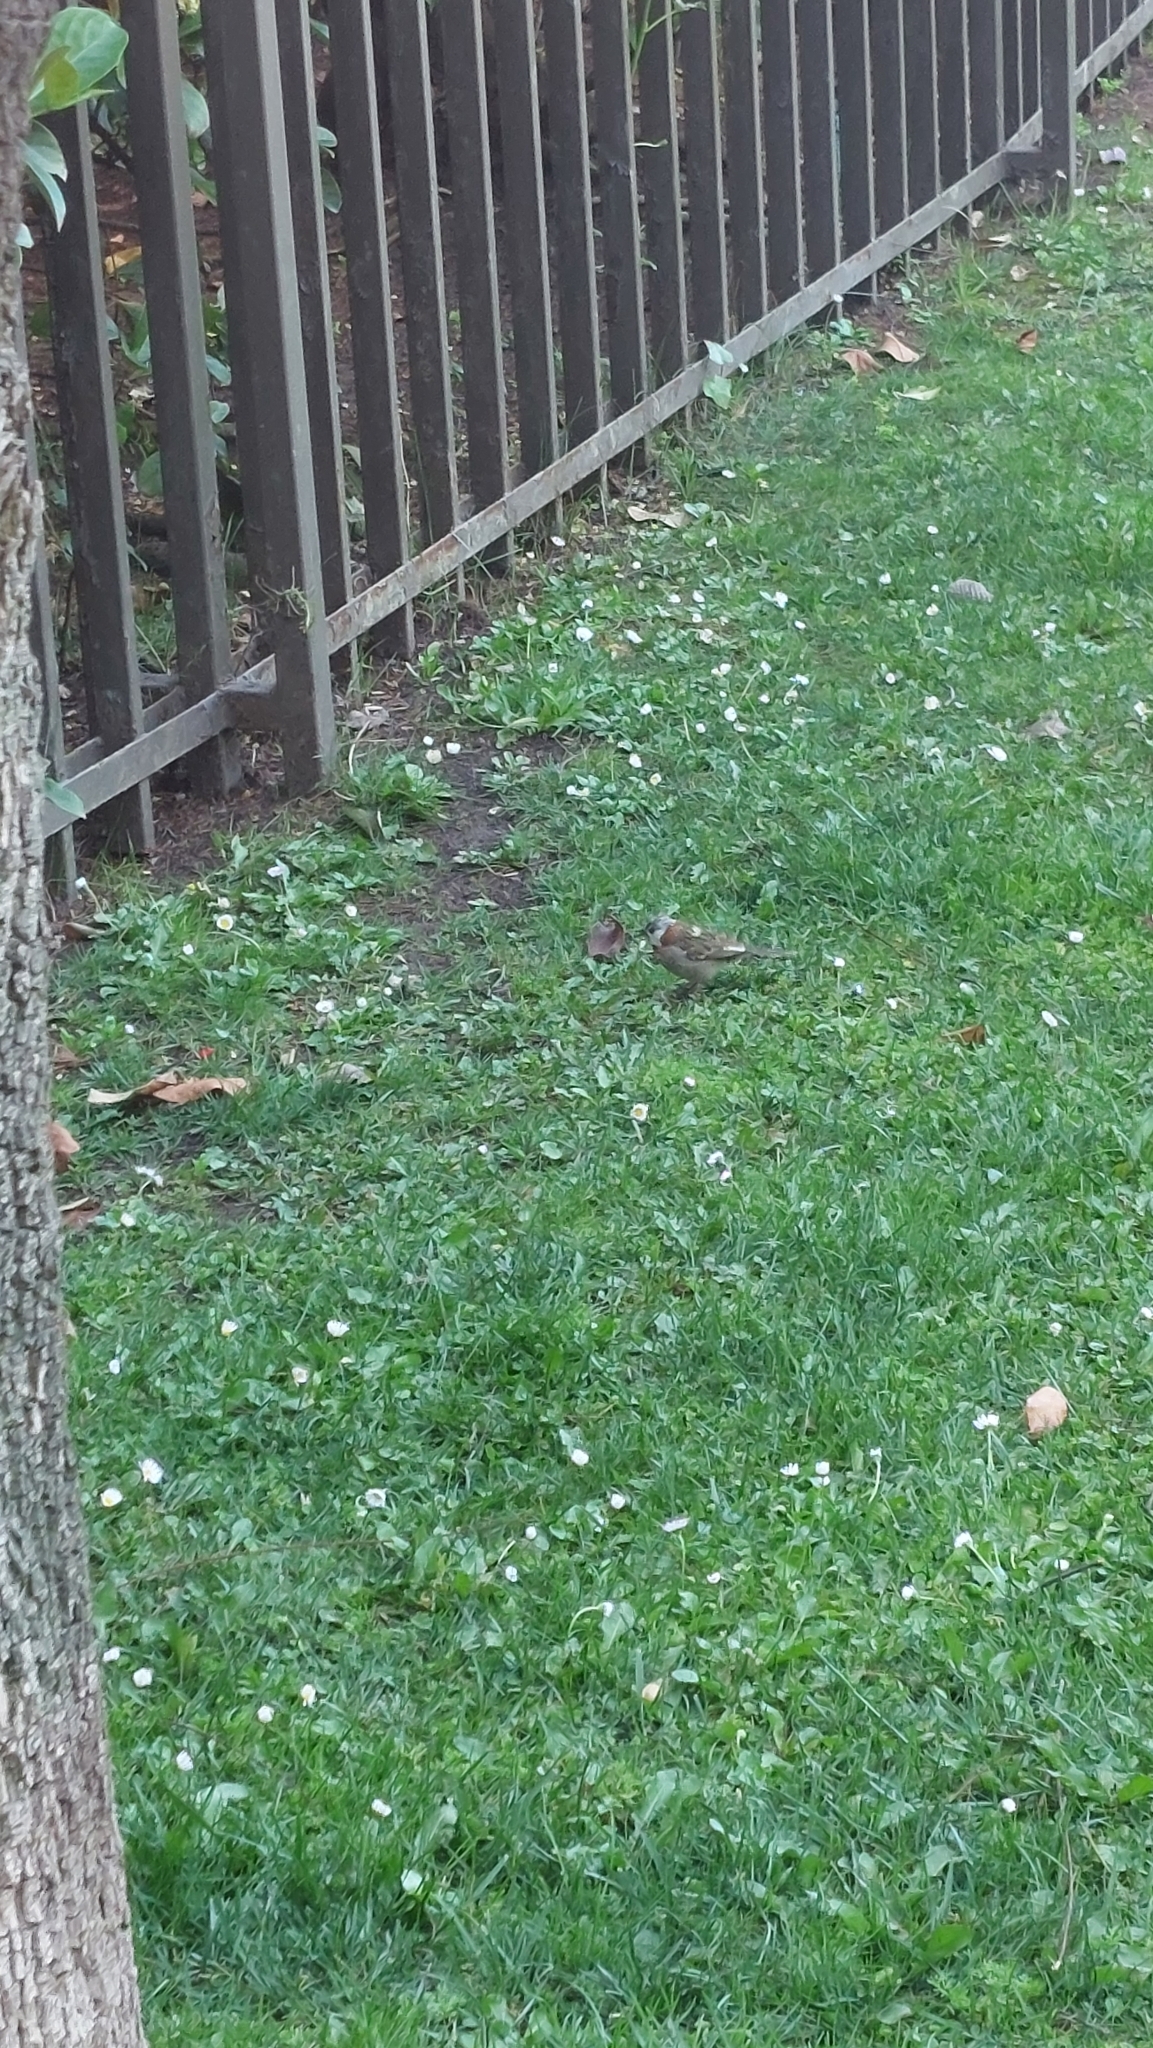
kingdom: Animalia
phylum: Chordata
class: Aves
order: Passeriformes
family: Passerellidae
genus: Zonotrichia
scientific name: Zonotrichia capensis
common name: Rufous-collared sparrow
